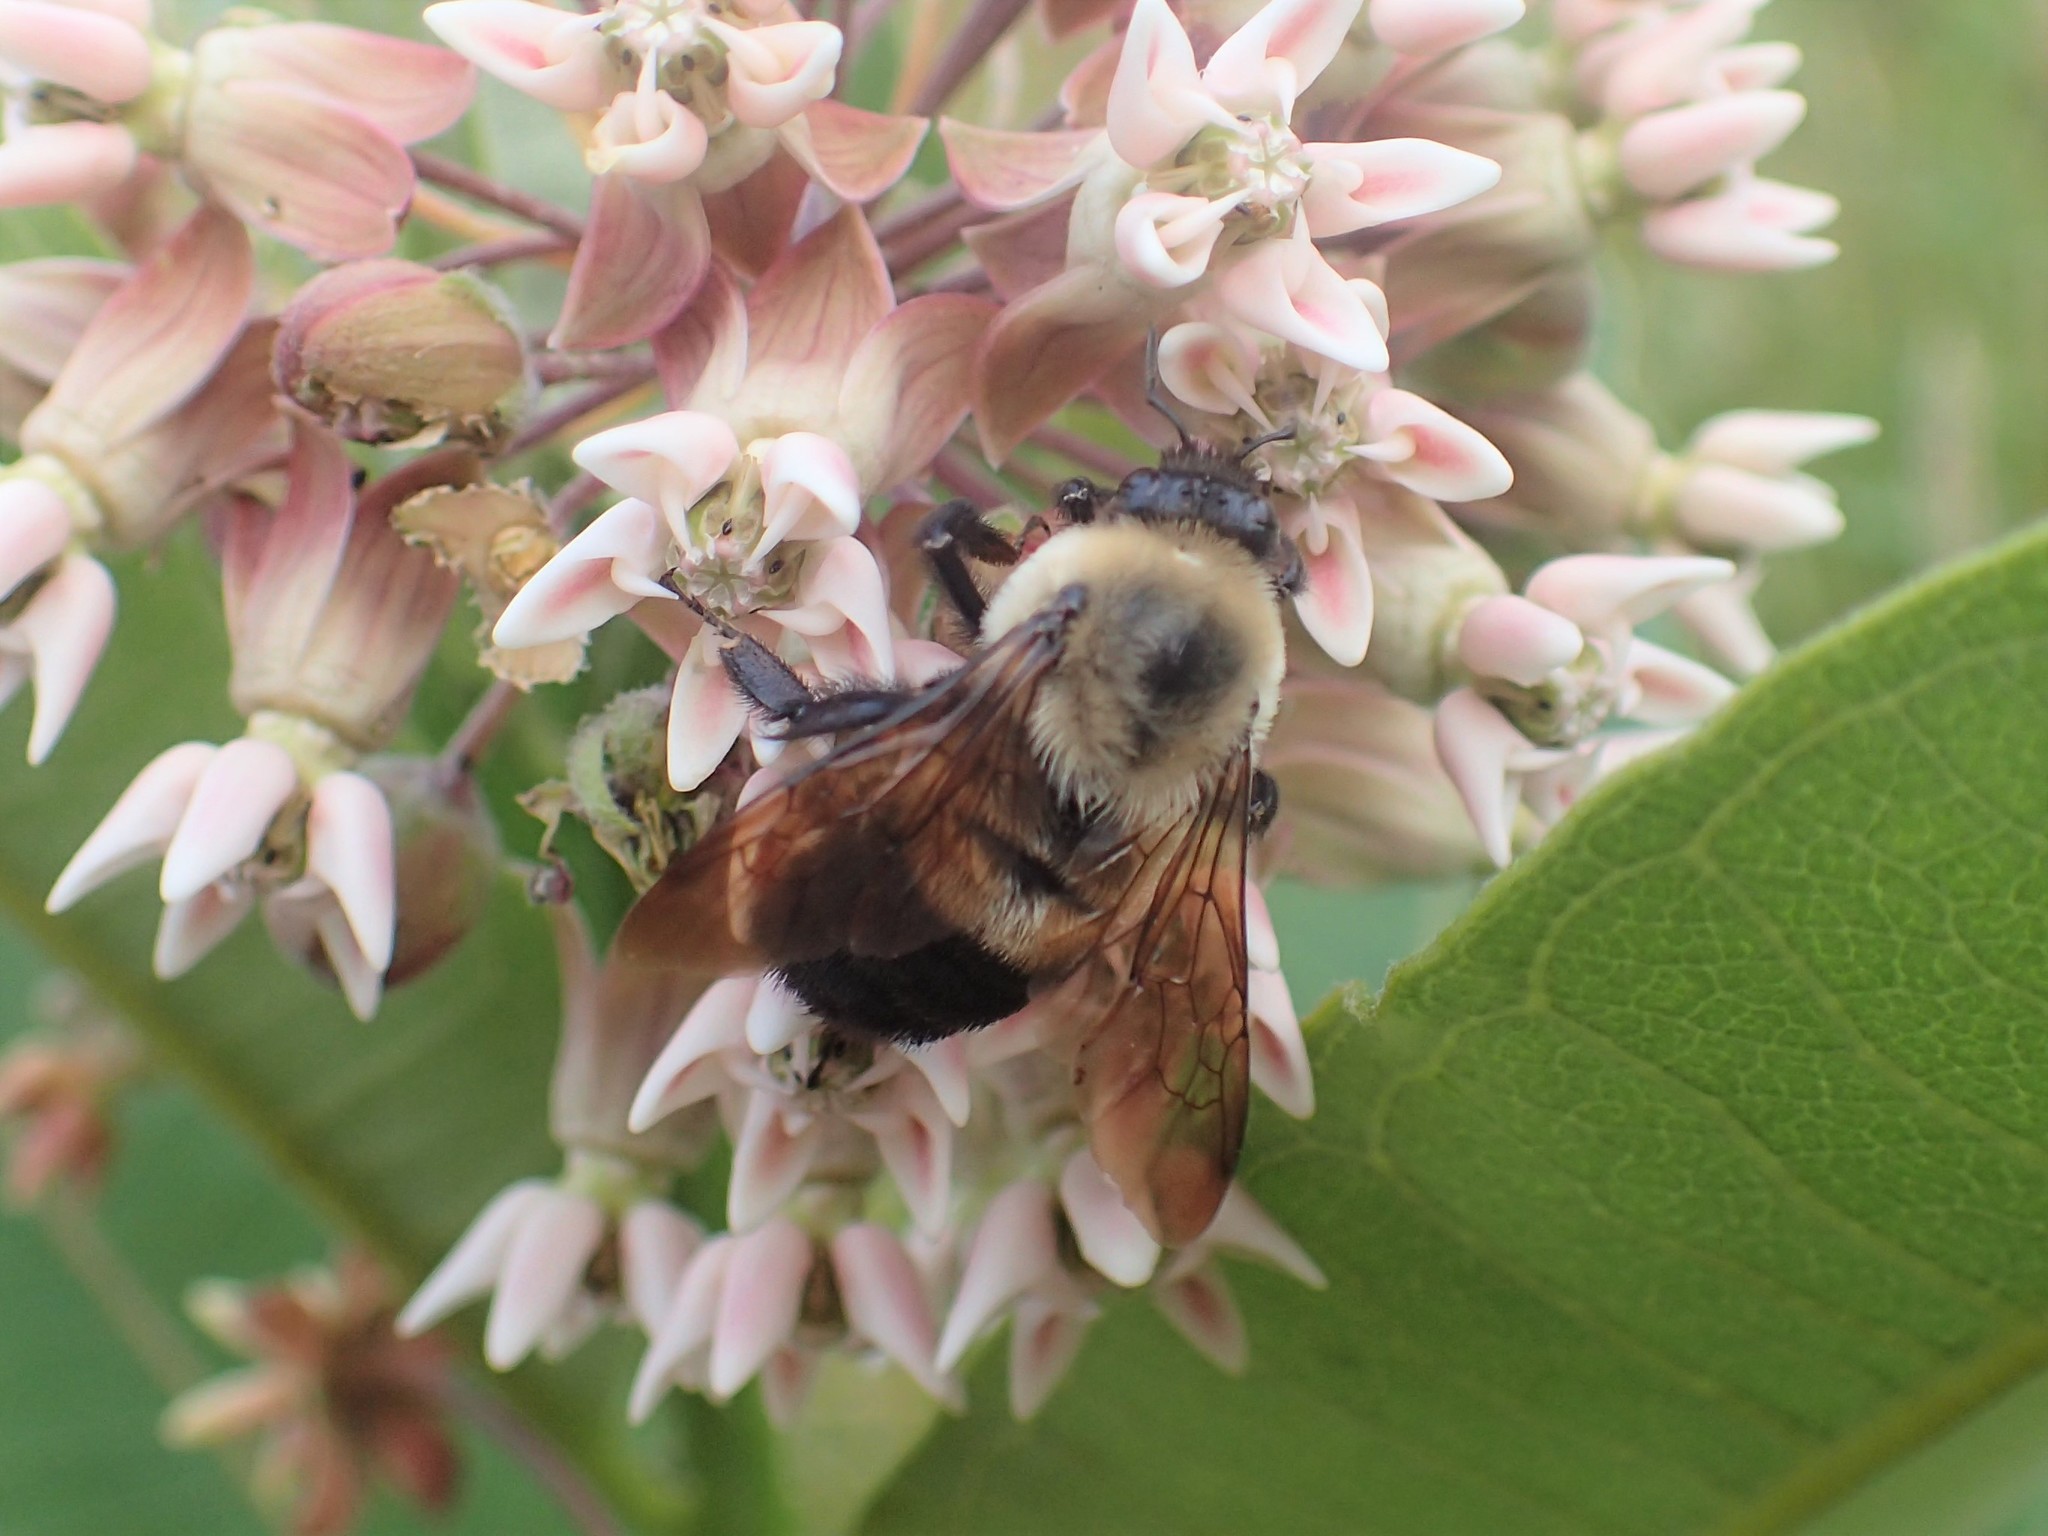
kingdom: Animalia
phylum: Arthropoda
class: Insecta
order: Hymenoptera
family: Apidae
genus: Bombus
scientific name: Bombus griseocollis
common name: Brown-belted bumble bee
